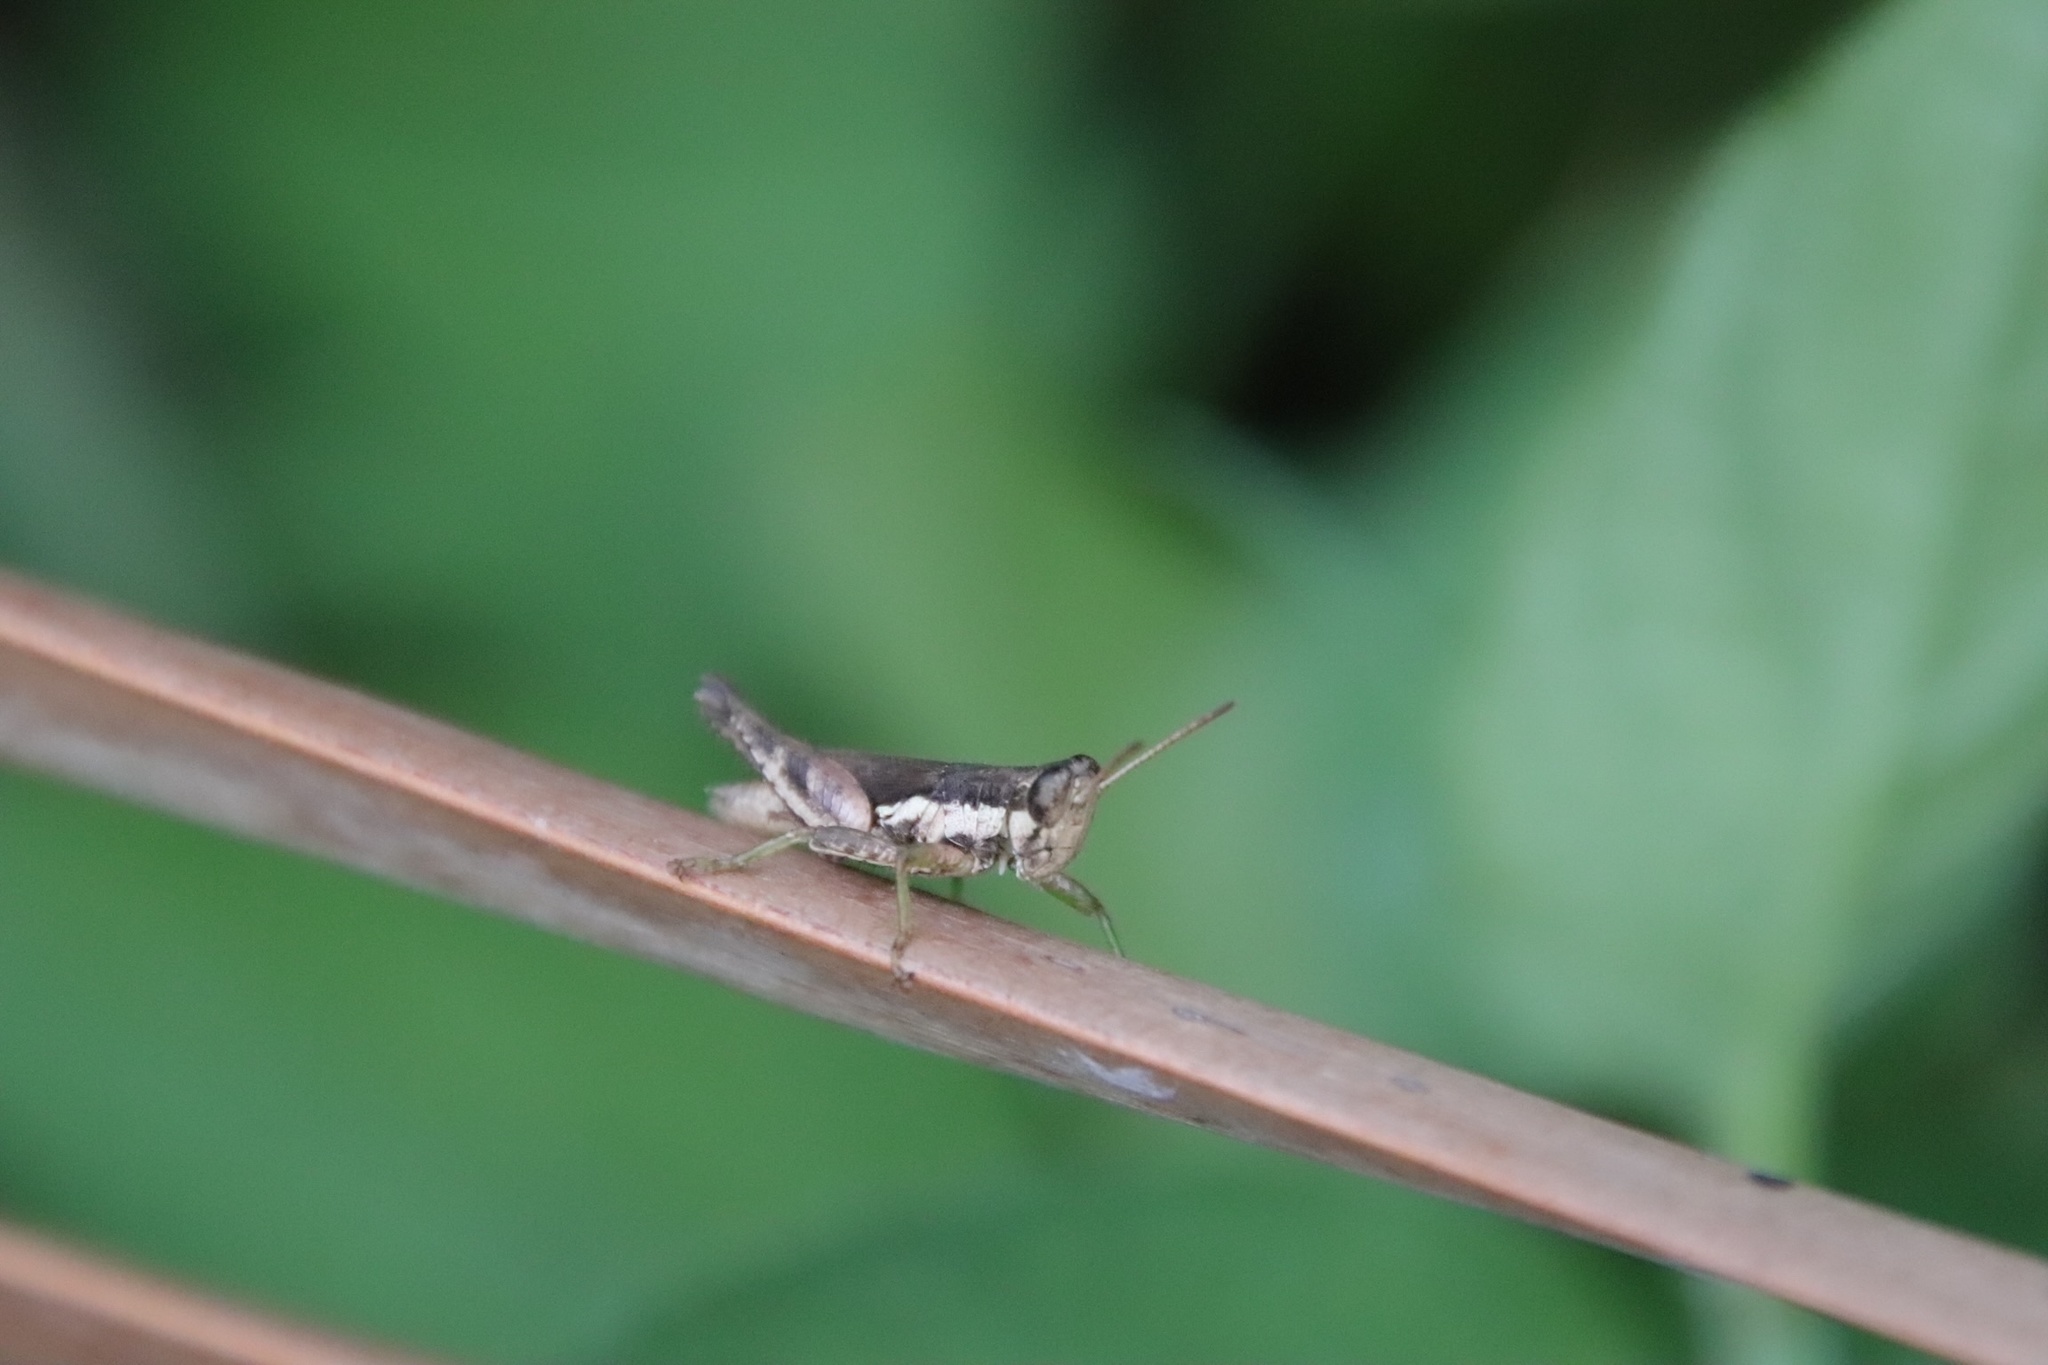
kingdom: Animalia
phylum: Arthropoda
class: Insecta
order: Orthoptera
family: Acrididae
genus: Pseudoxya
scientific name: Pseudoxya diminuta
